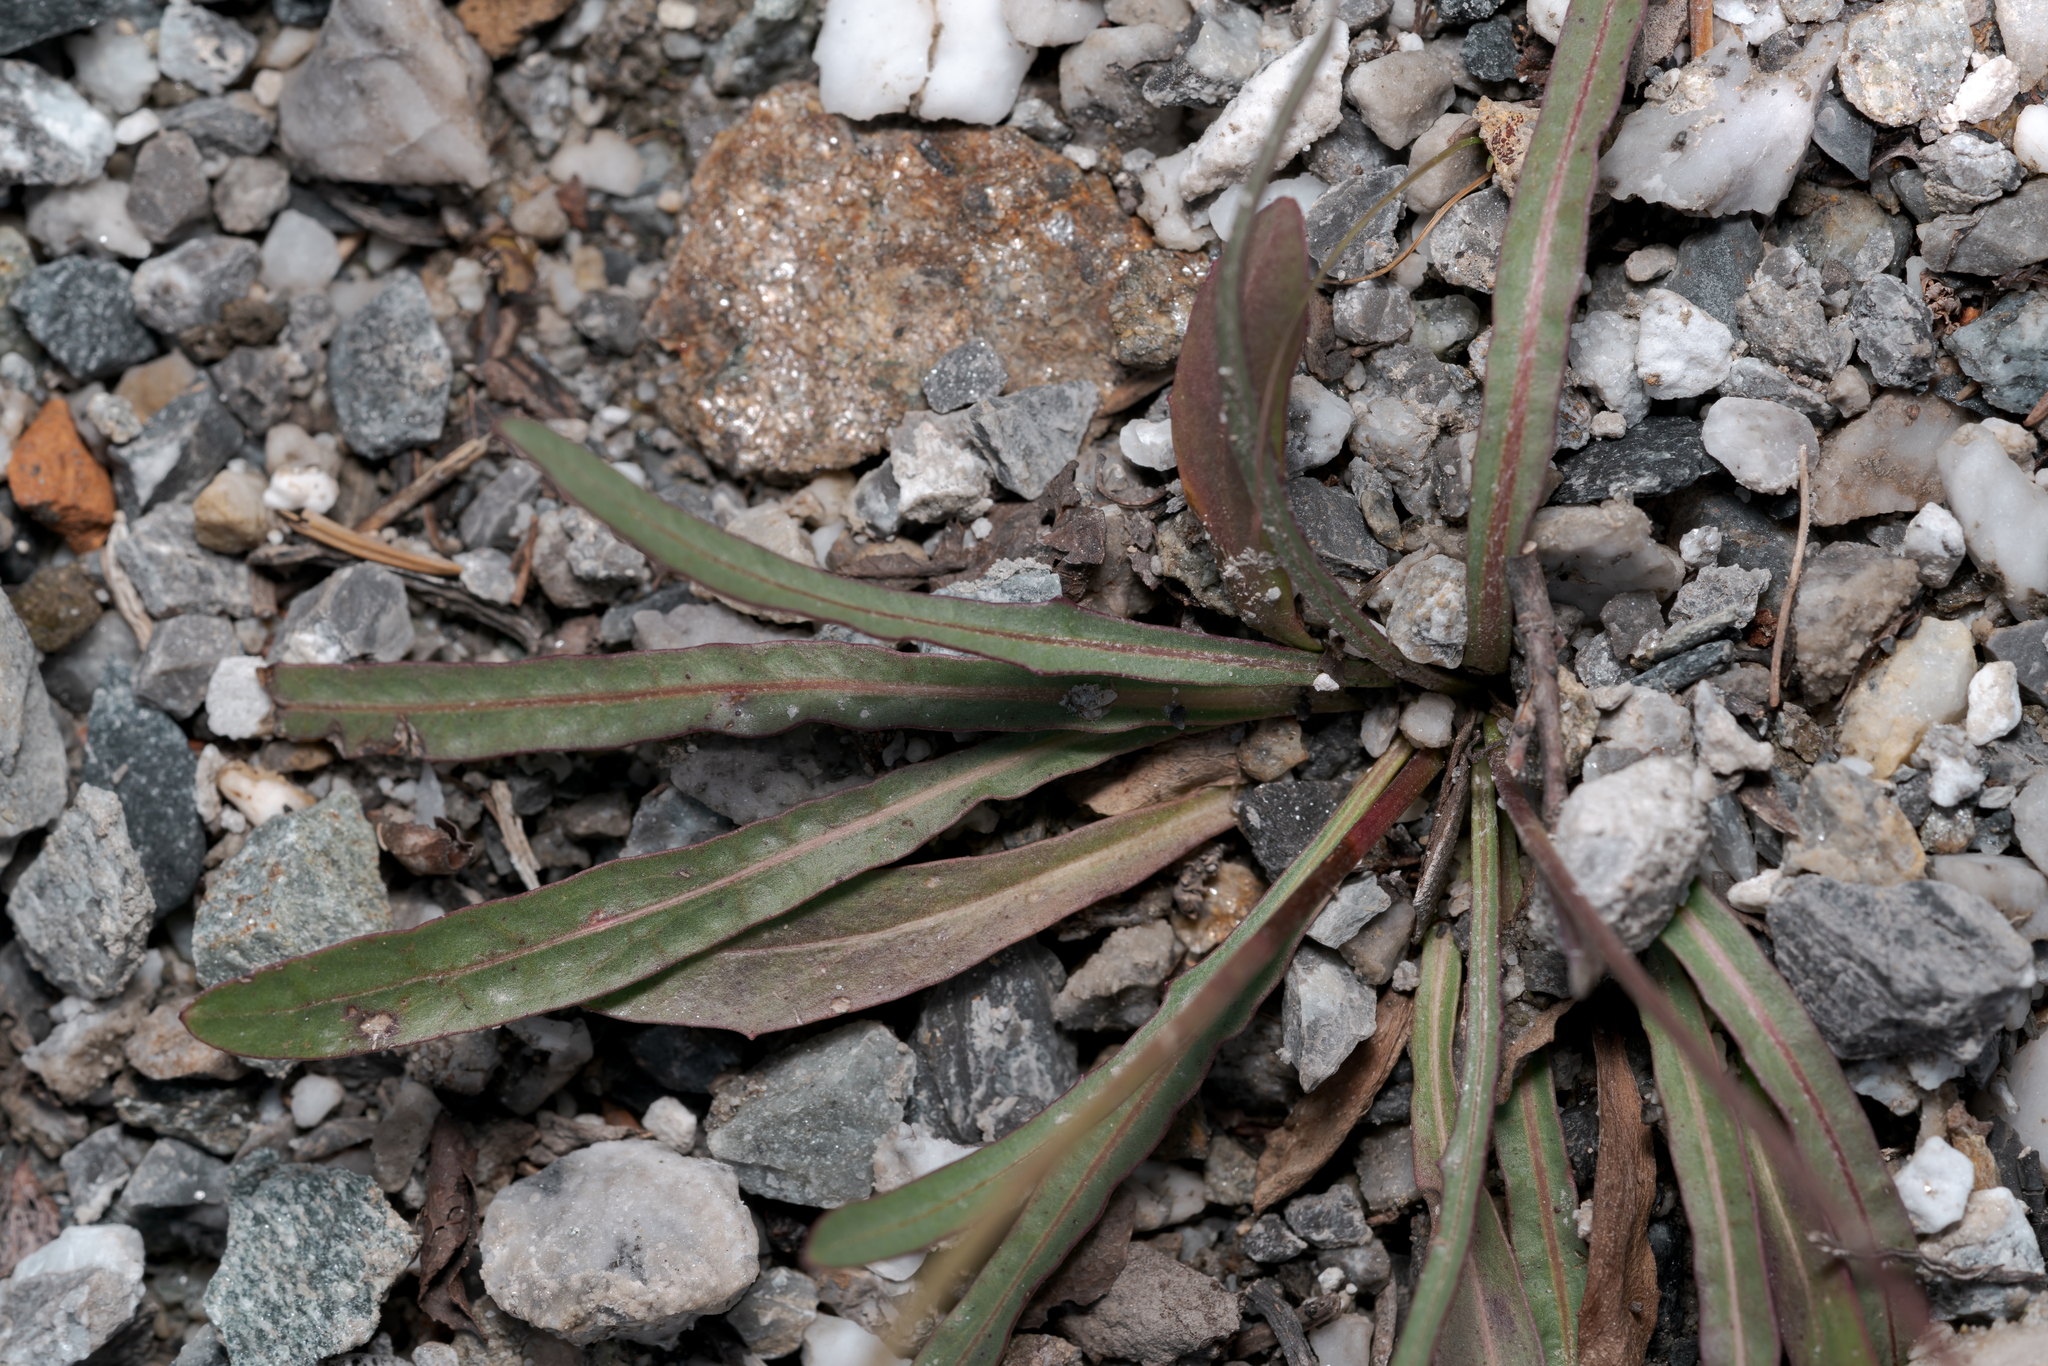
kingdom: Plantae
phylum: Tracheophyta
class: Magnoliopsida
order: Asterales
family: Asteraceae
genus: Tolpis
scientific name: Tolpis staticifolia
